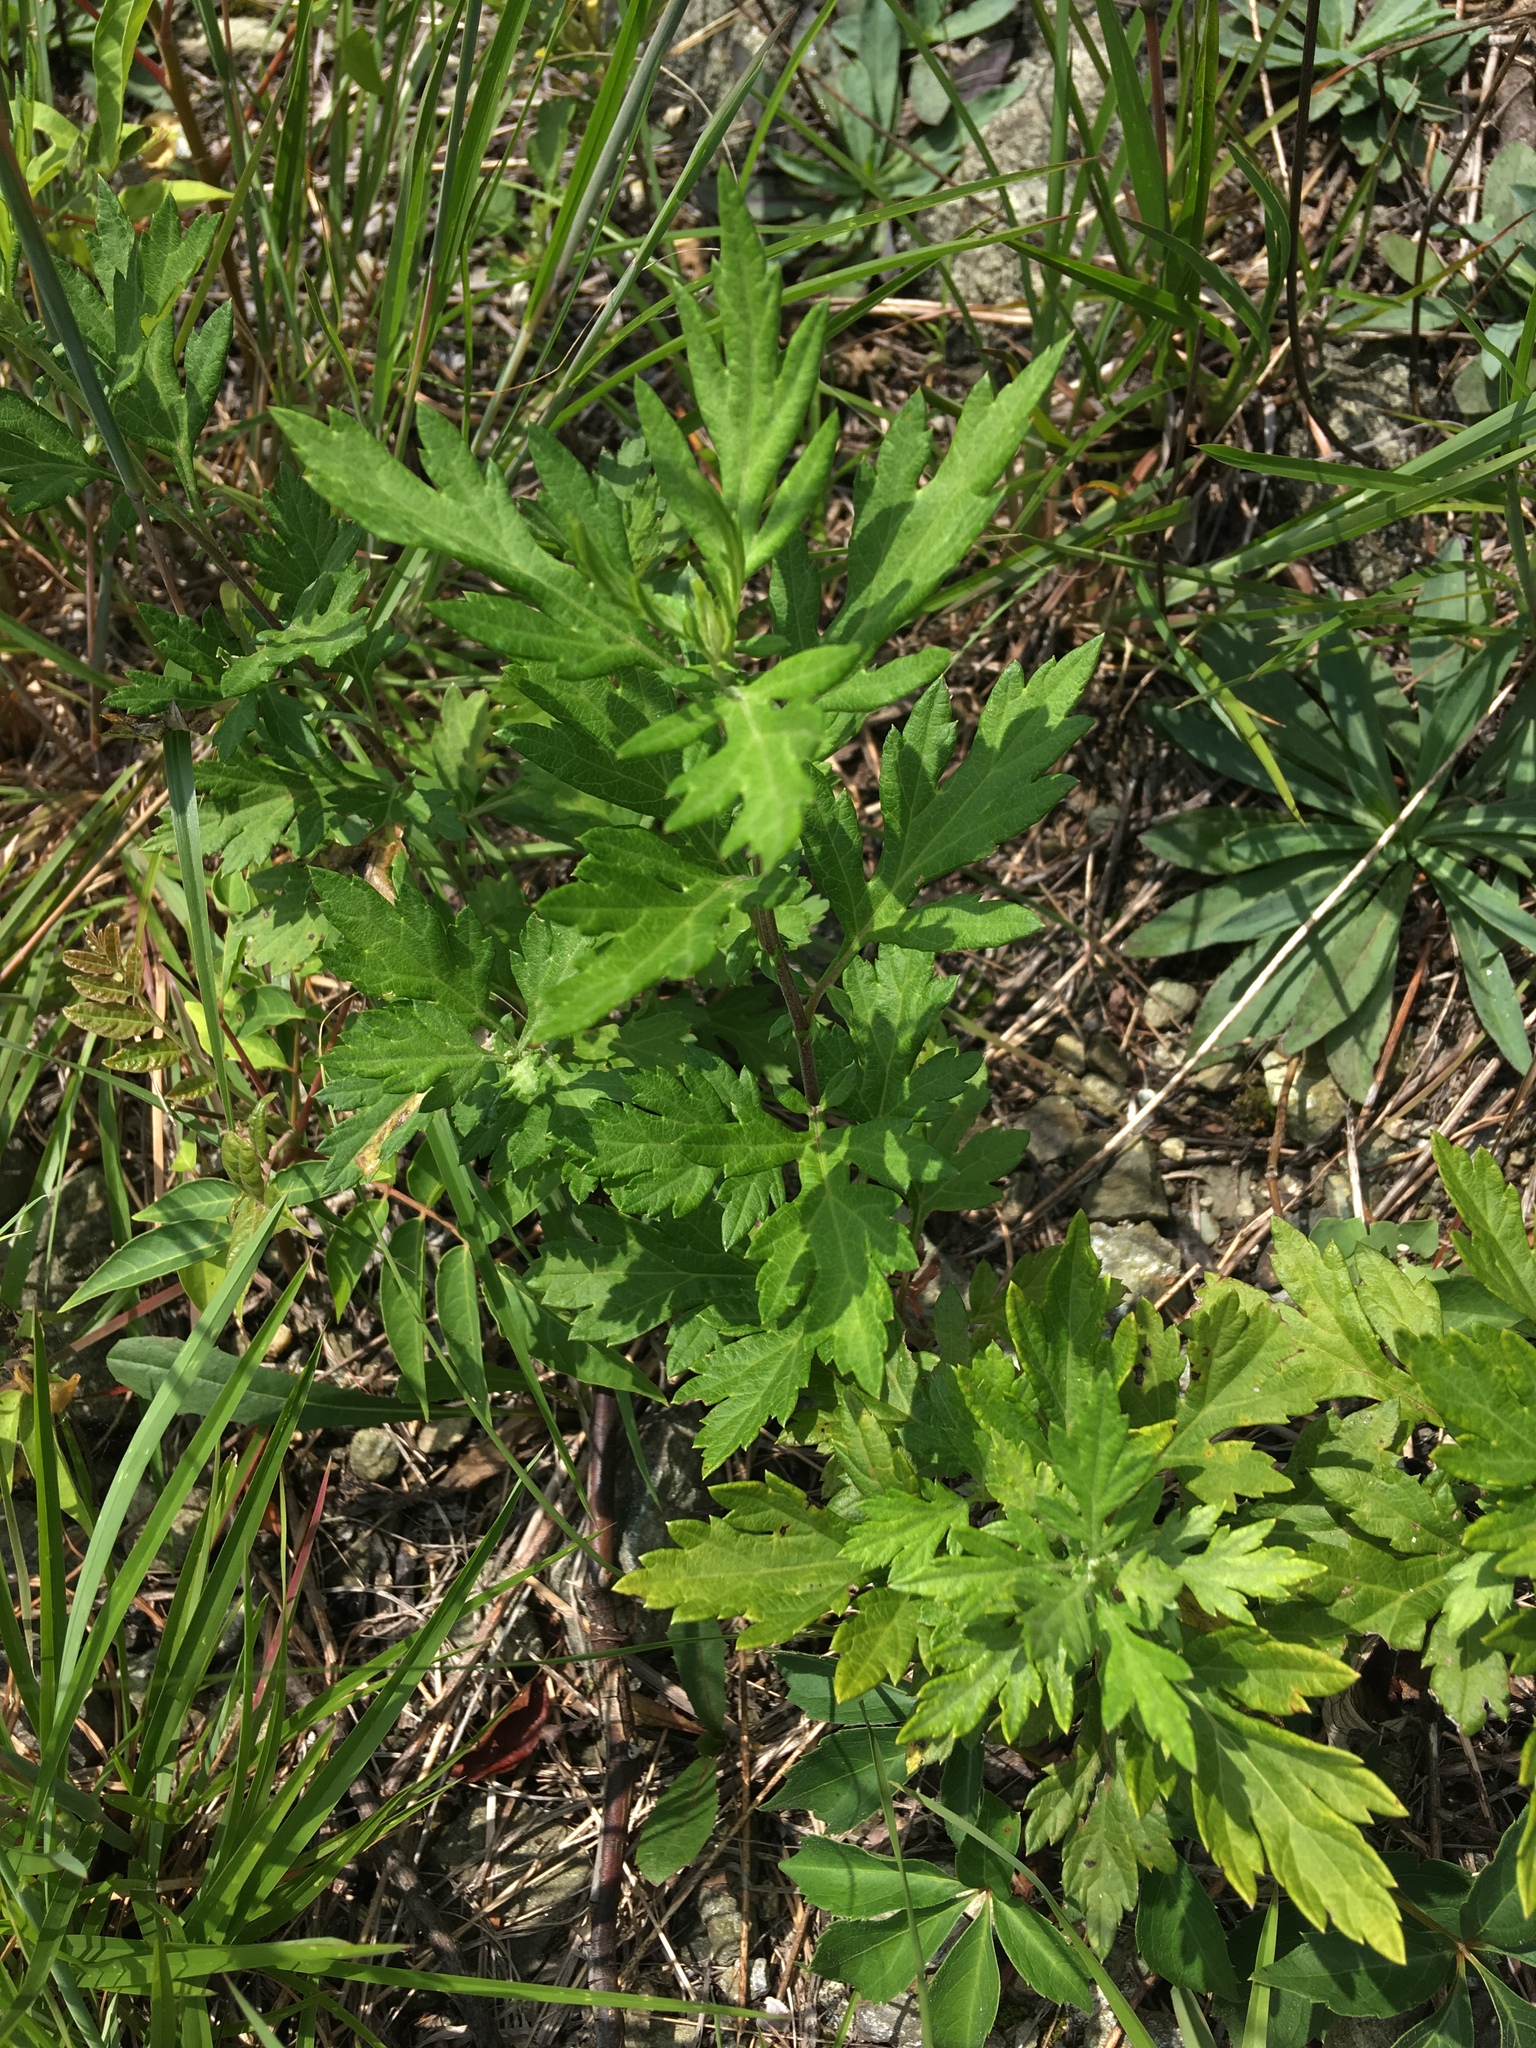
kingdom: Plantae
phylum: Tracheophyta
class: Magnoliopsida
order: Asterales
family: Asteraceae
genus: Artemisia
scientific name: Artemisia vulgaris
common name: Mugwort
